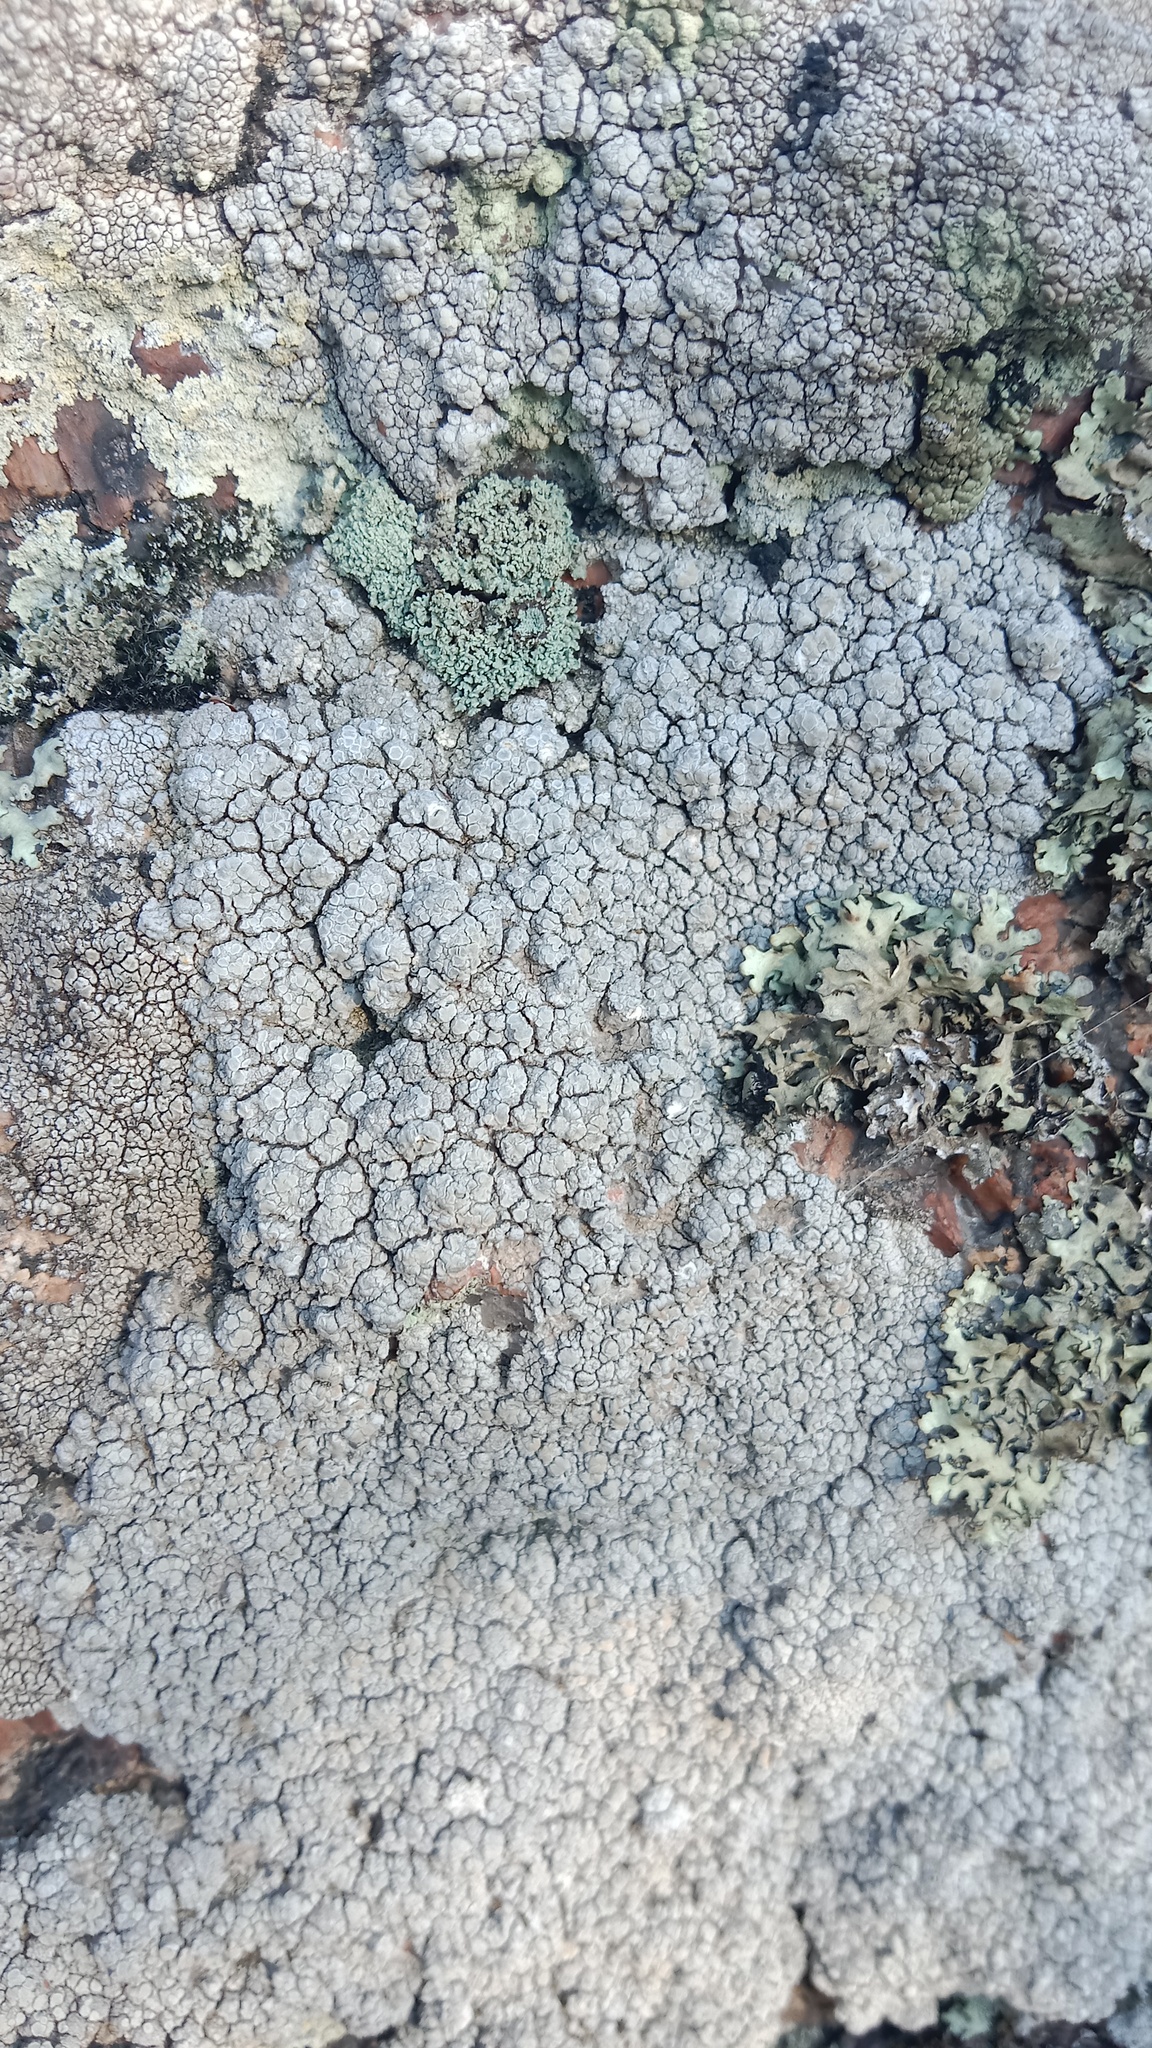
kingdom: Fungi
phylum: Ascomycota
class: Lecanoromycetes
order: Lecanorales
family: Lecanoraceae
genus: Glaucomaria
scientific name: Glaucomaria rupicola
